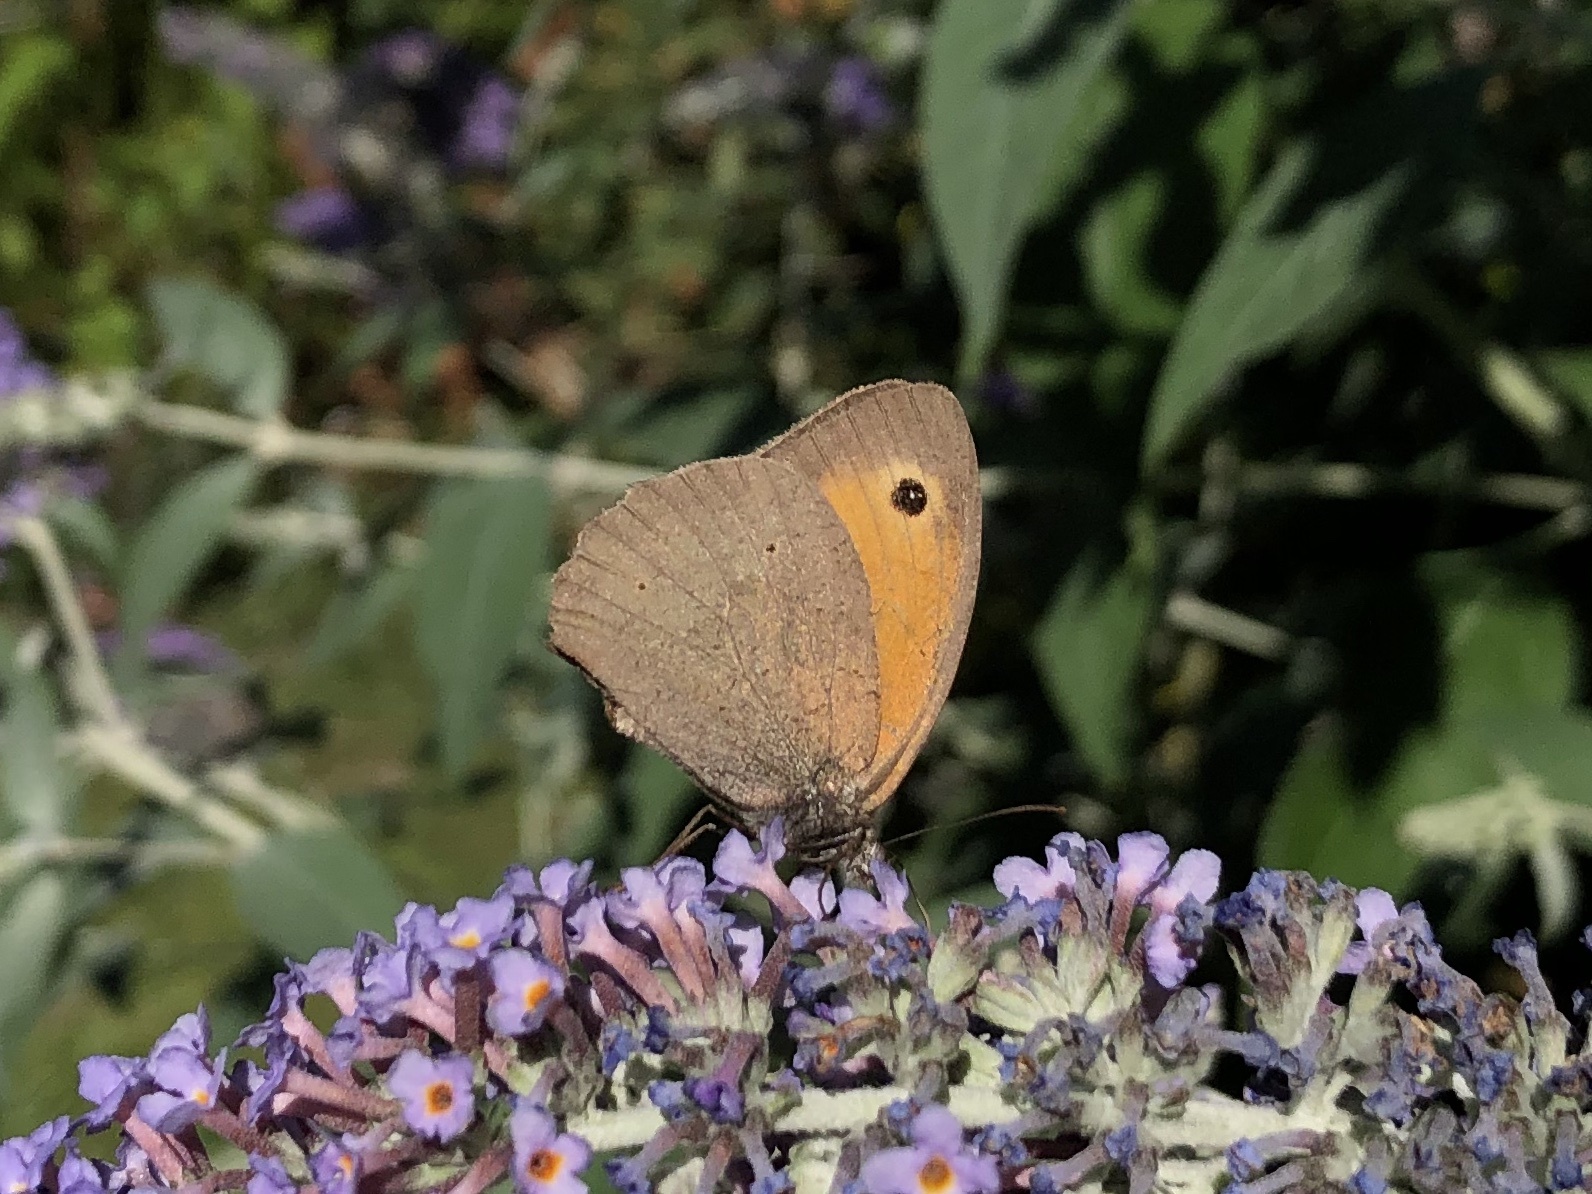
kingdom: Animalia
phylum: Arthropoda
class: Insecta
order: Lepidoptera
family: Nymphalidae
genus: Maniola
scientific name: Maniola jurtina
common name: Meadow brown
